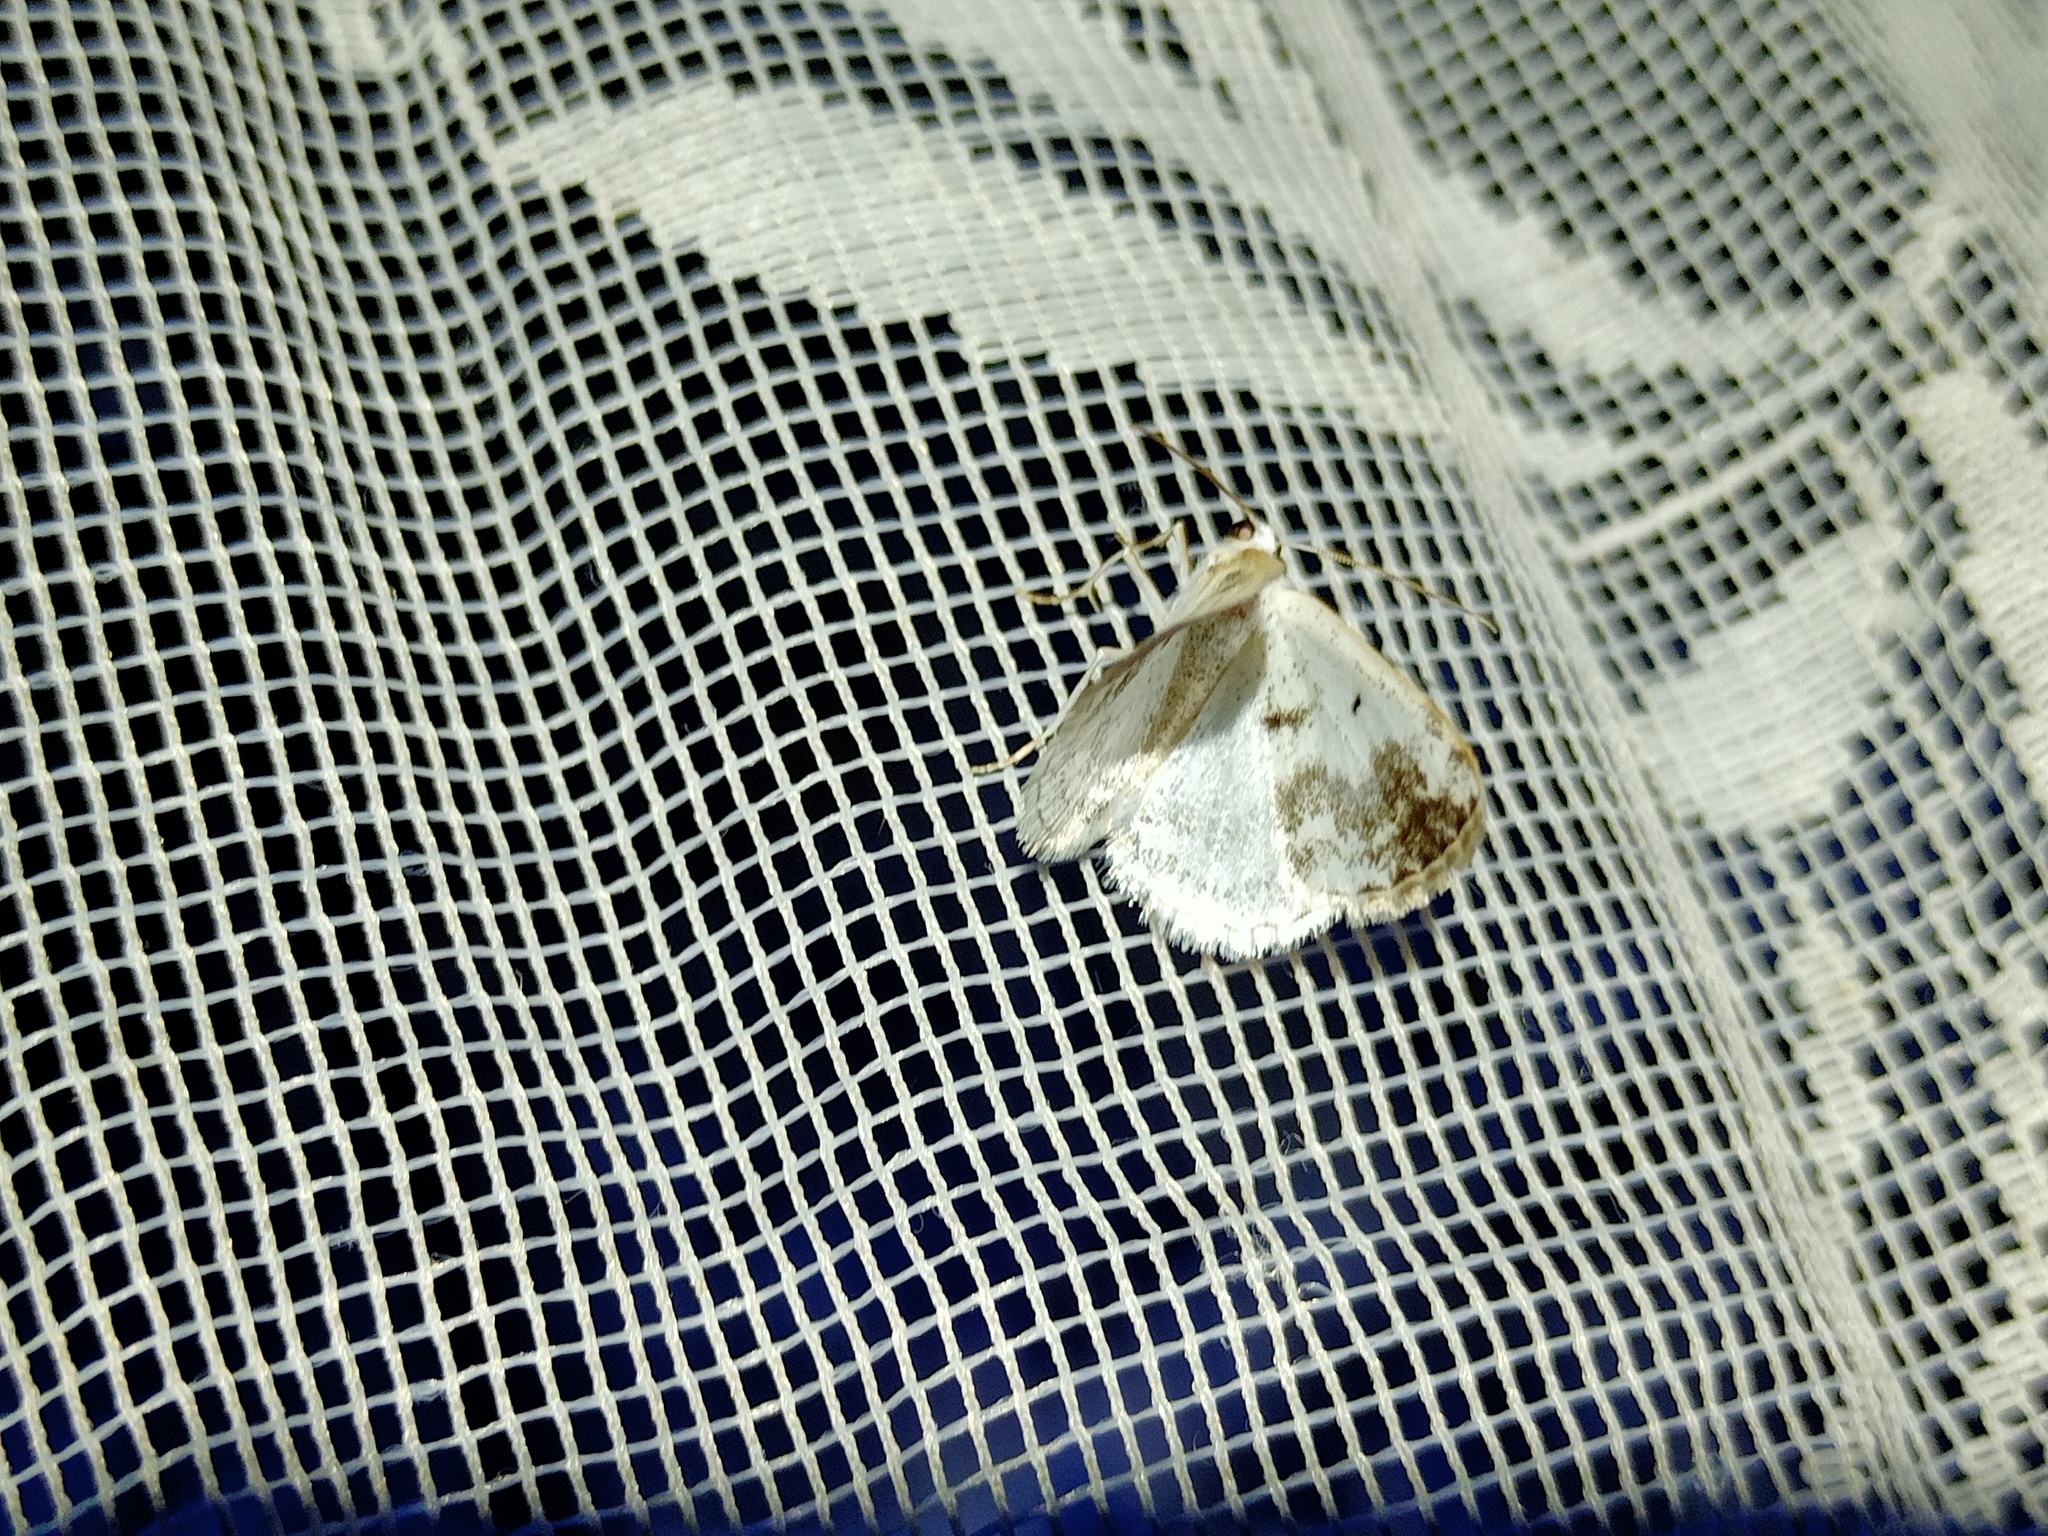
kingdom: Animalia
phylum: Arthropoda
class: Insecta
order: Lepidoptera
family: Geometridae
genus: Lomographa
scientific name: Lomographa temerata
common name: Clouded silver
